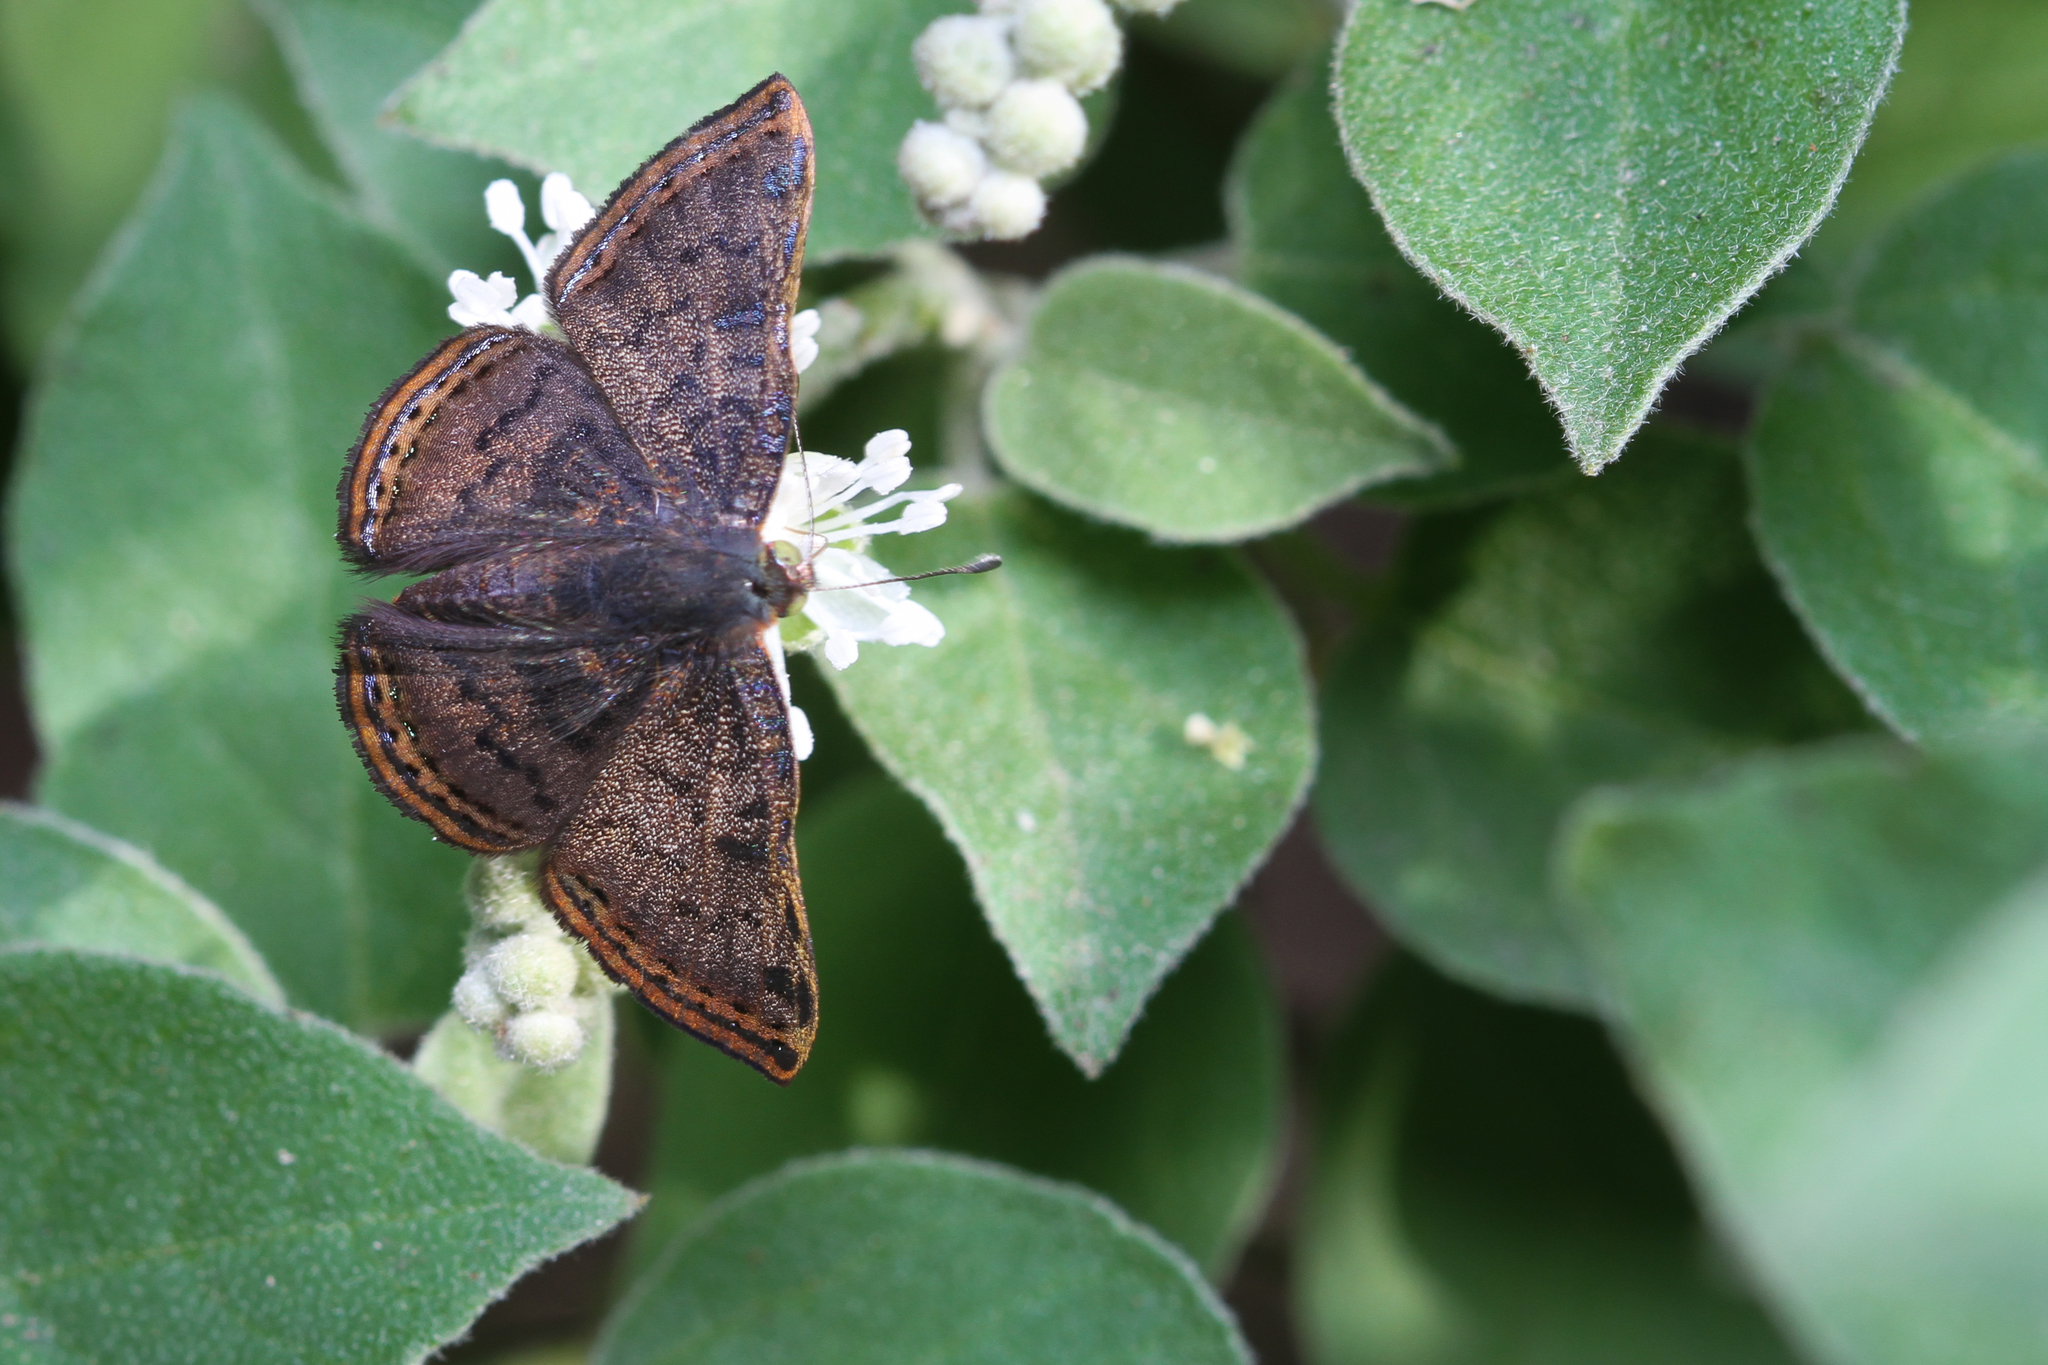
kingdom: Animalia
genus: Caria
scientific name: Caria ino
